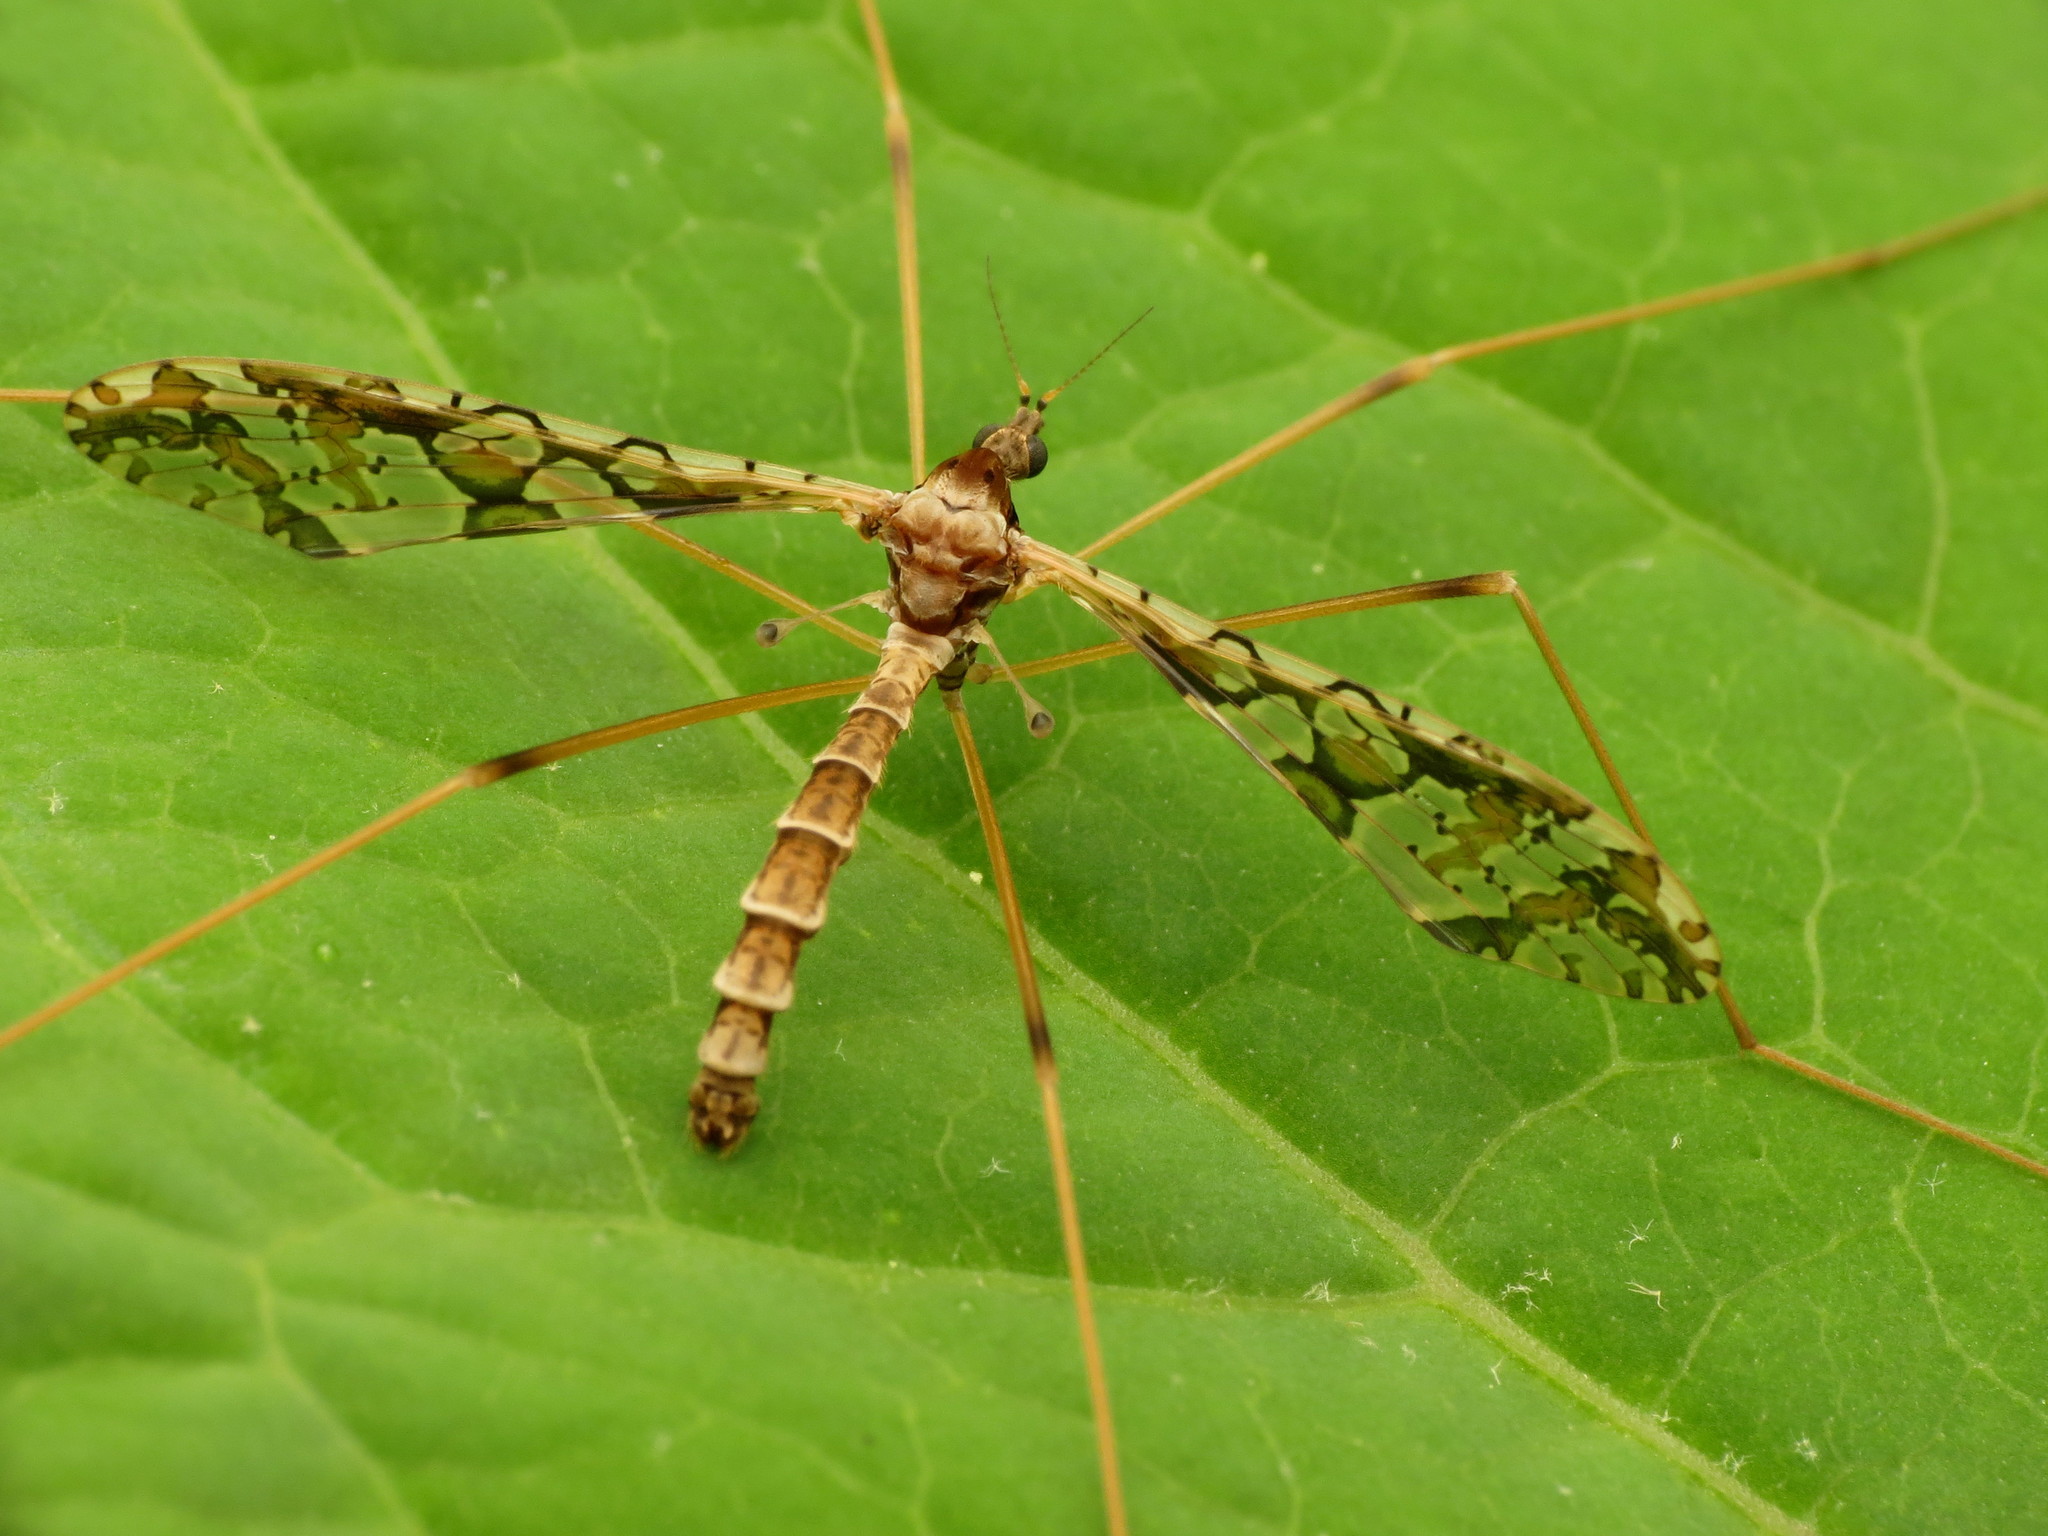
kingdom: Animalia
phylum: Arthropoda
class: Insecta
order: Diptera
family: Limoniidae
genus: Epiphragma
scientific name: Epiphragma solatrix
